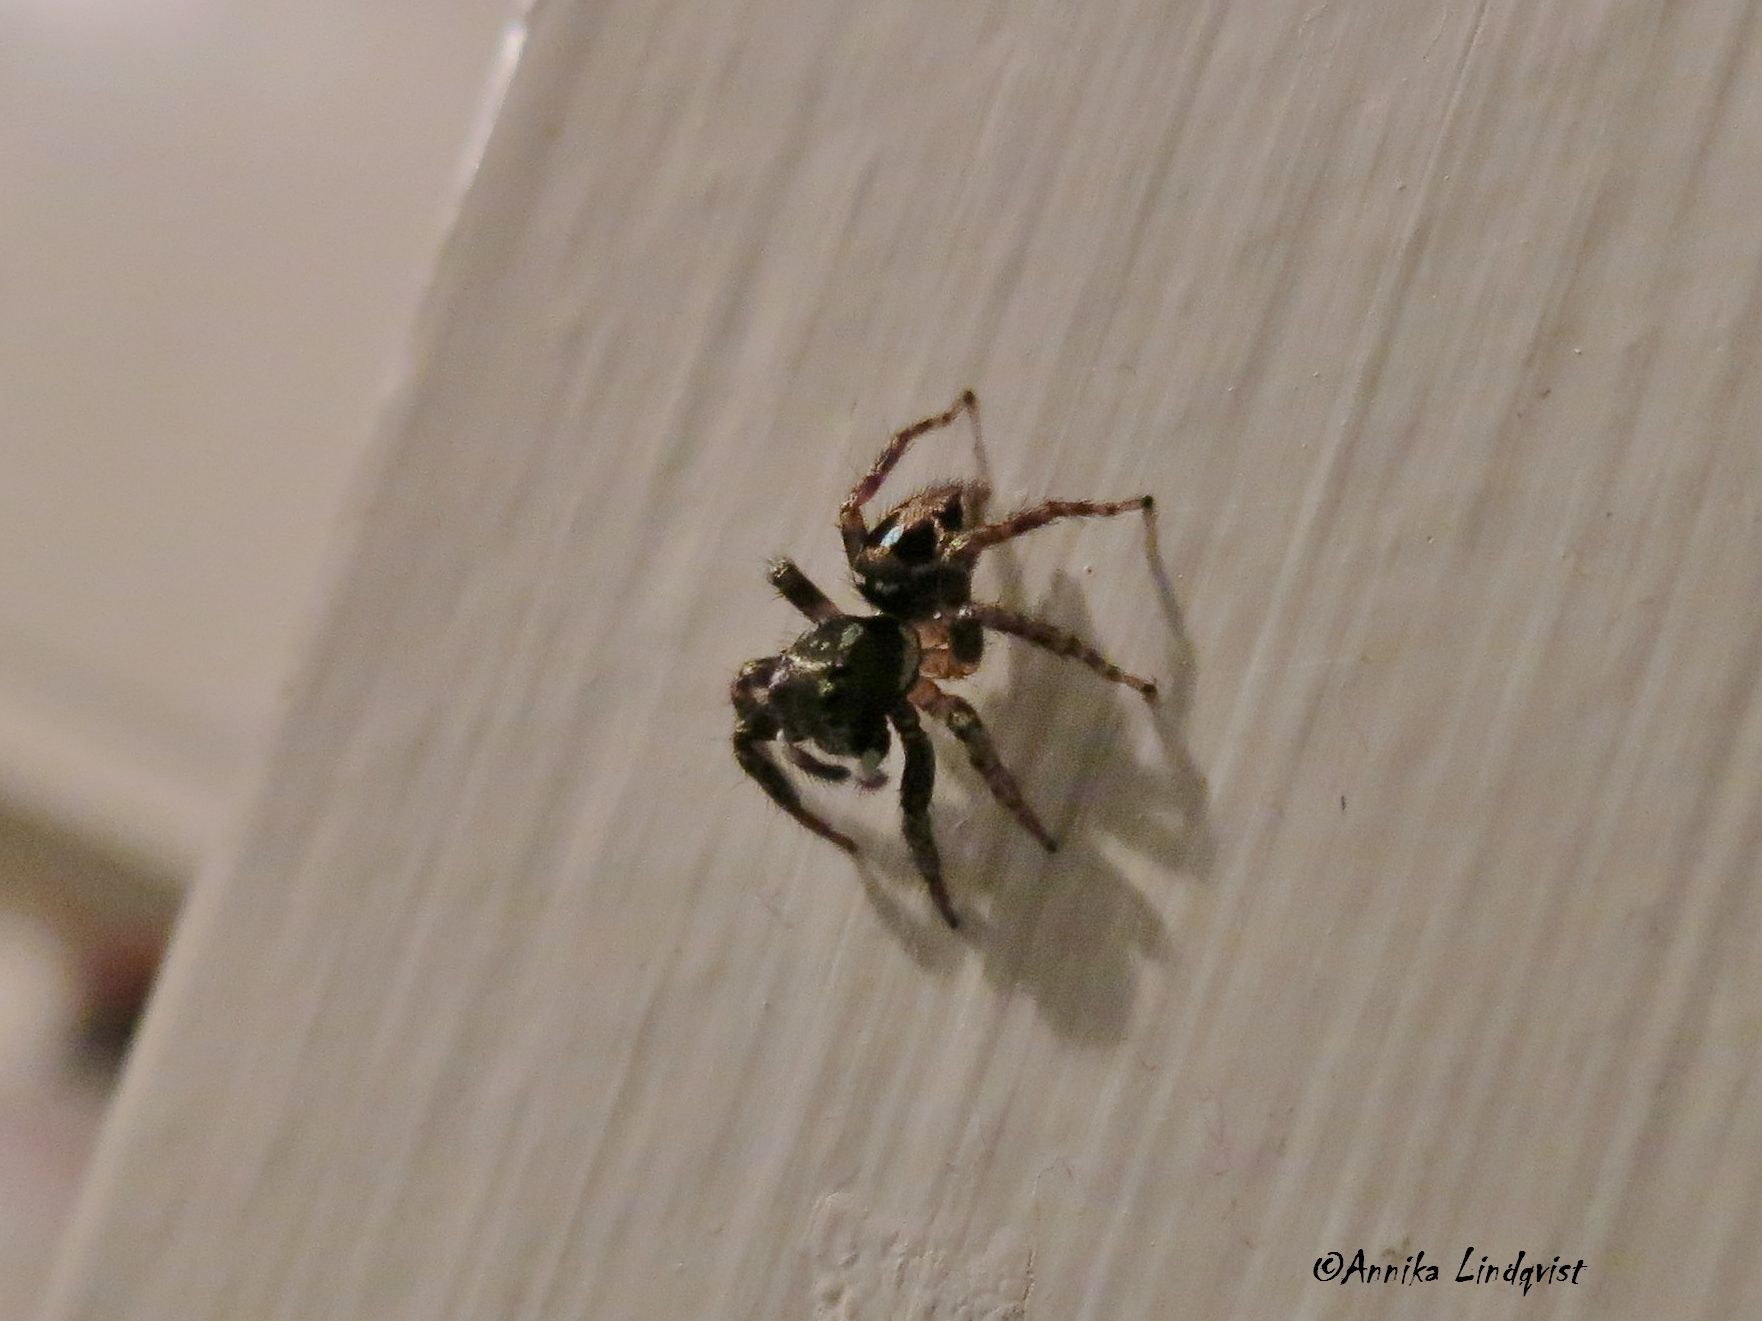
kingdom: Animalia
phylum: Arthropoda
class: Arachnida
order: Araneae
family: Salticidae
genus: Anasaitis
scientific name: Anasaitis canosa
